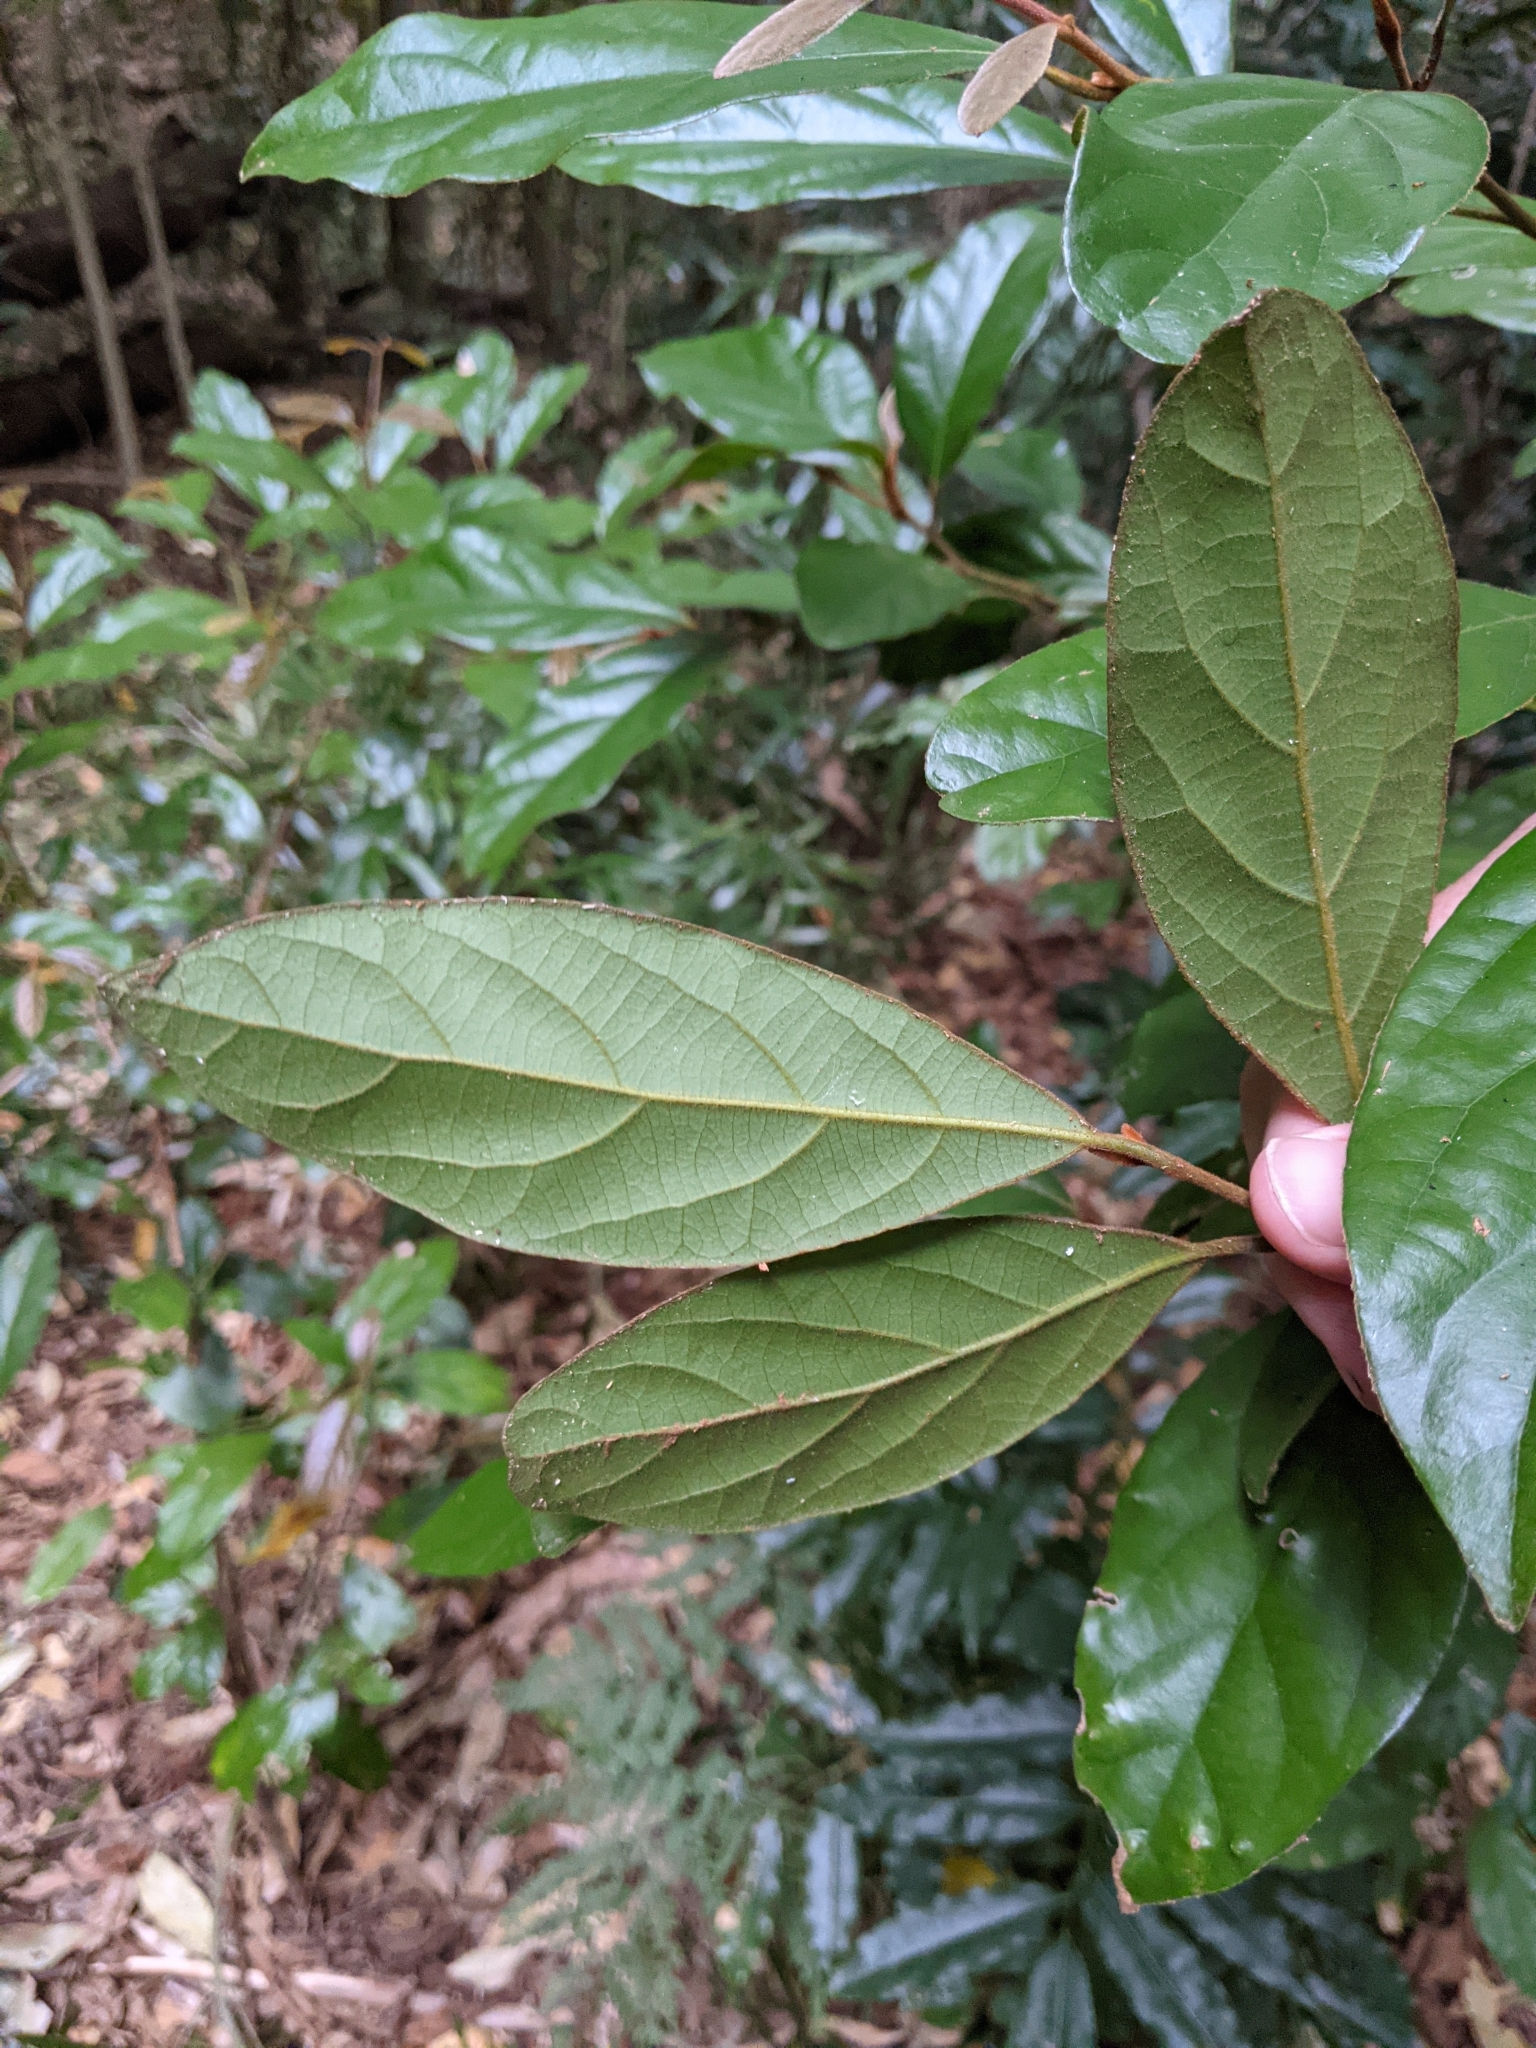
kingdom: Plantae
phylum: Tracheophyta
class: Magnoliopsida
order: Laurales
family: Lauraceae
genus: Endiandra
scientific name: Endiandra pubens
